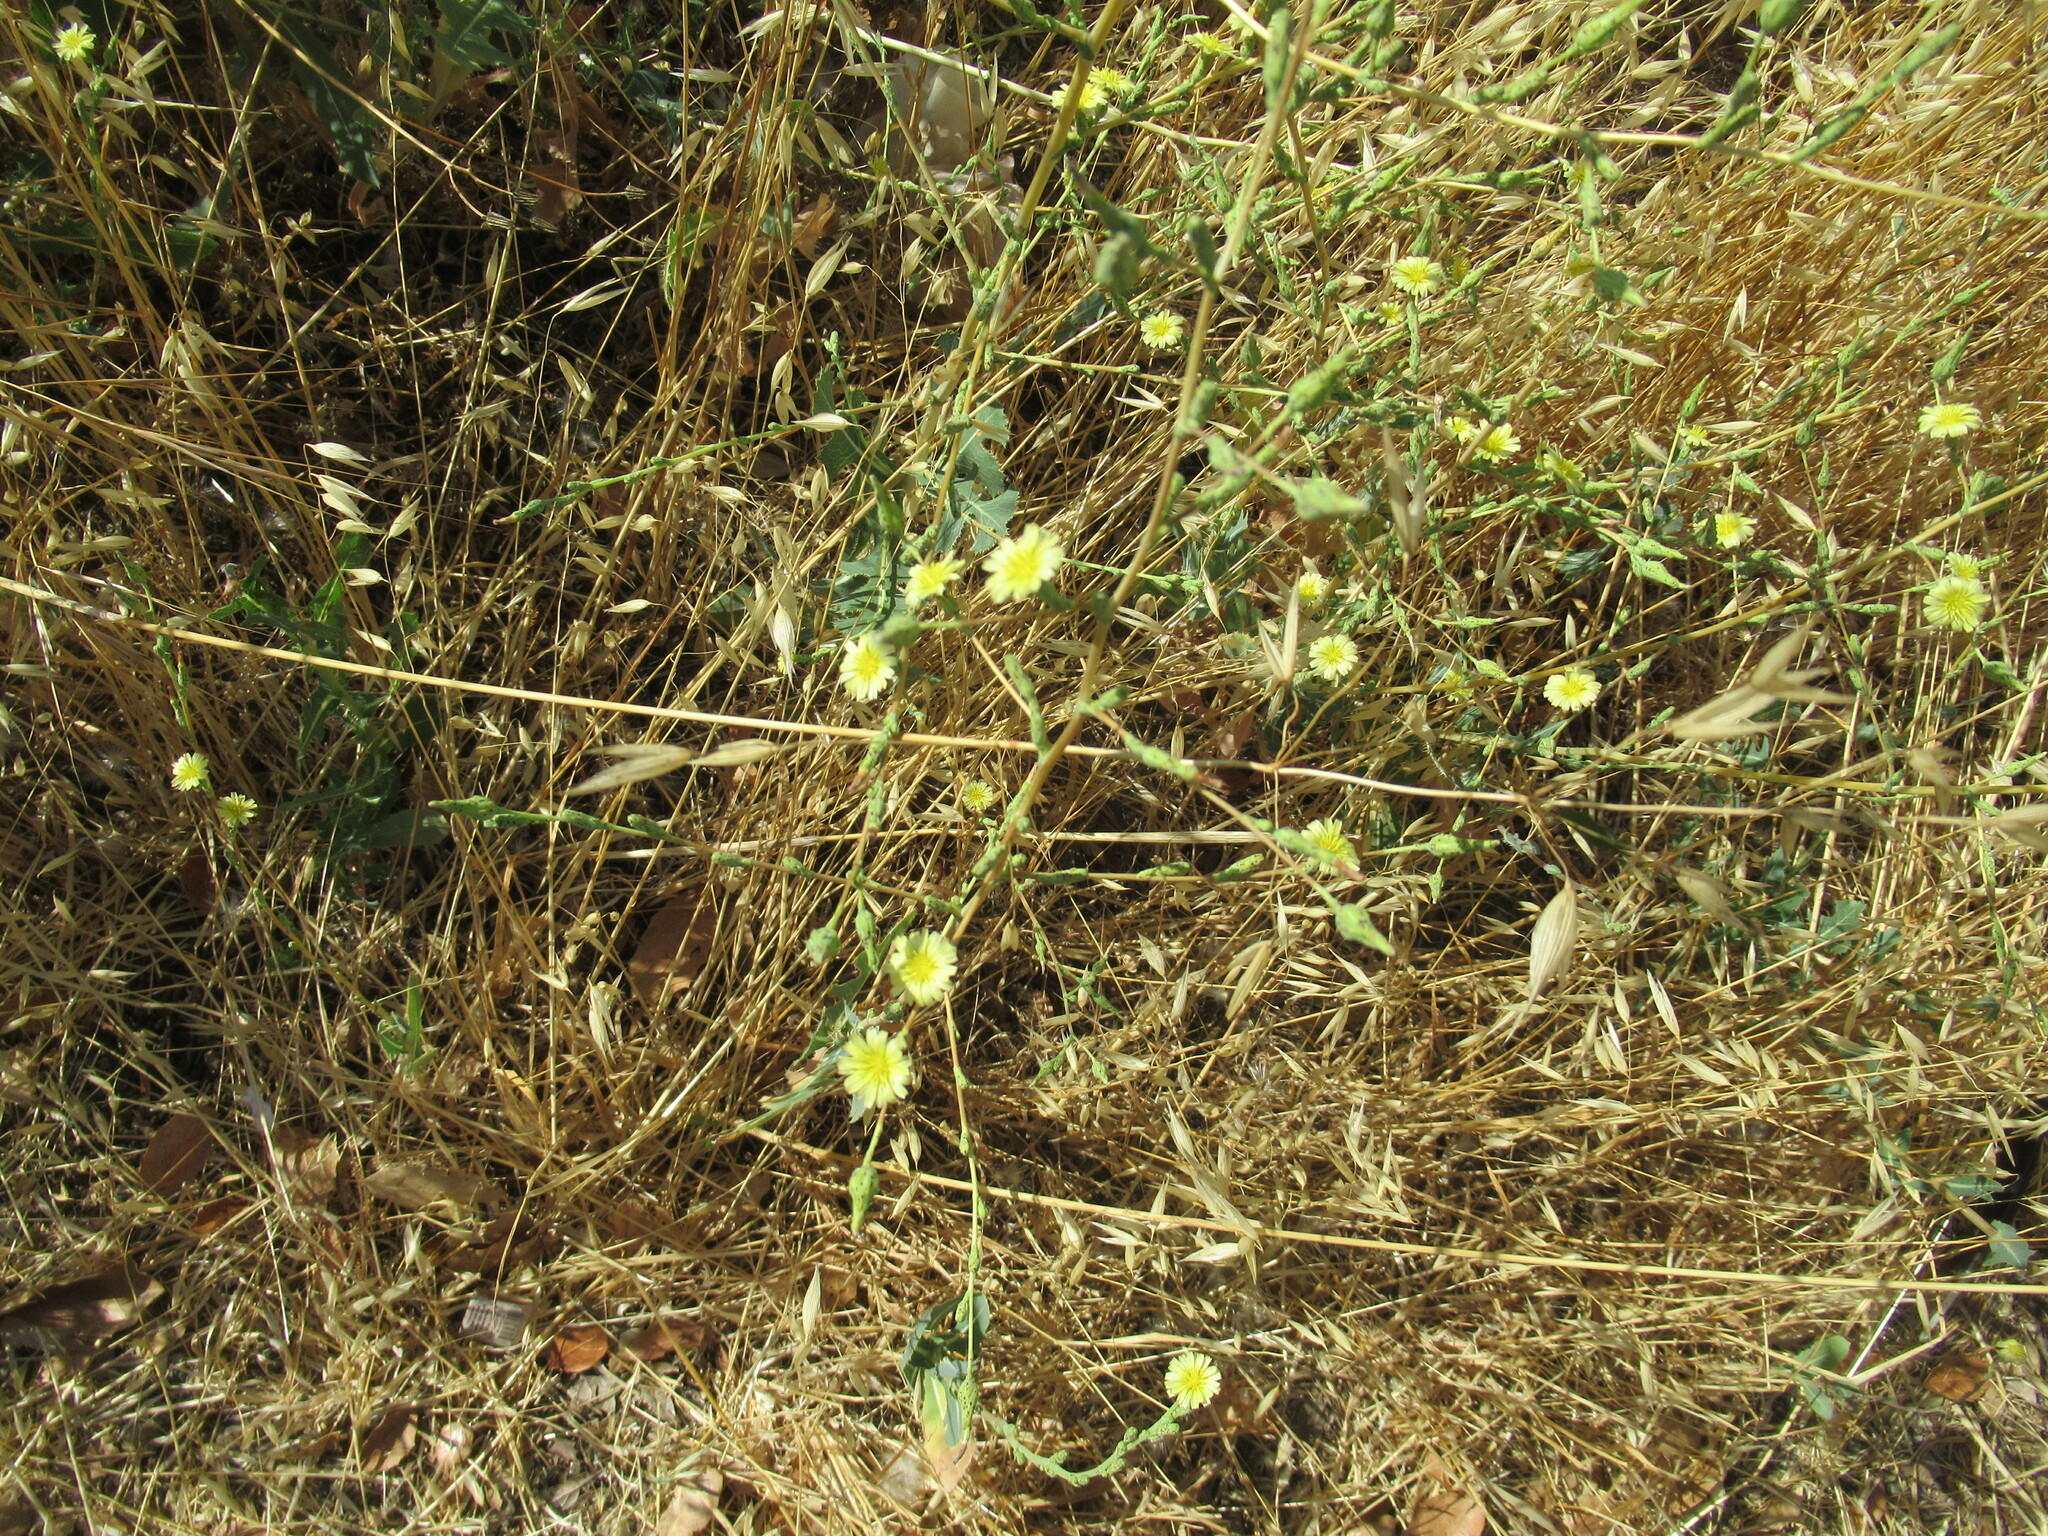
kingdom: Plantae
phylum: Tracheophyta
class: Magnoliopsida
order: Asterales
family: Asteraceae
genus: Lactuca
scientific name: Lactuca serriola
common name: Prickly lettuce
